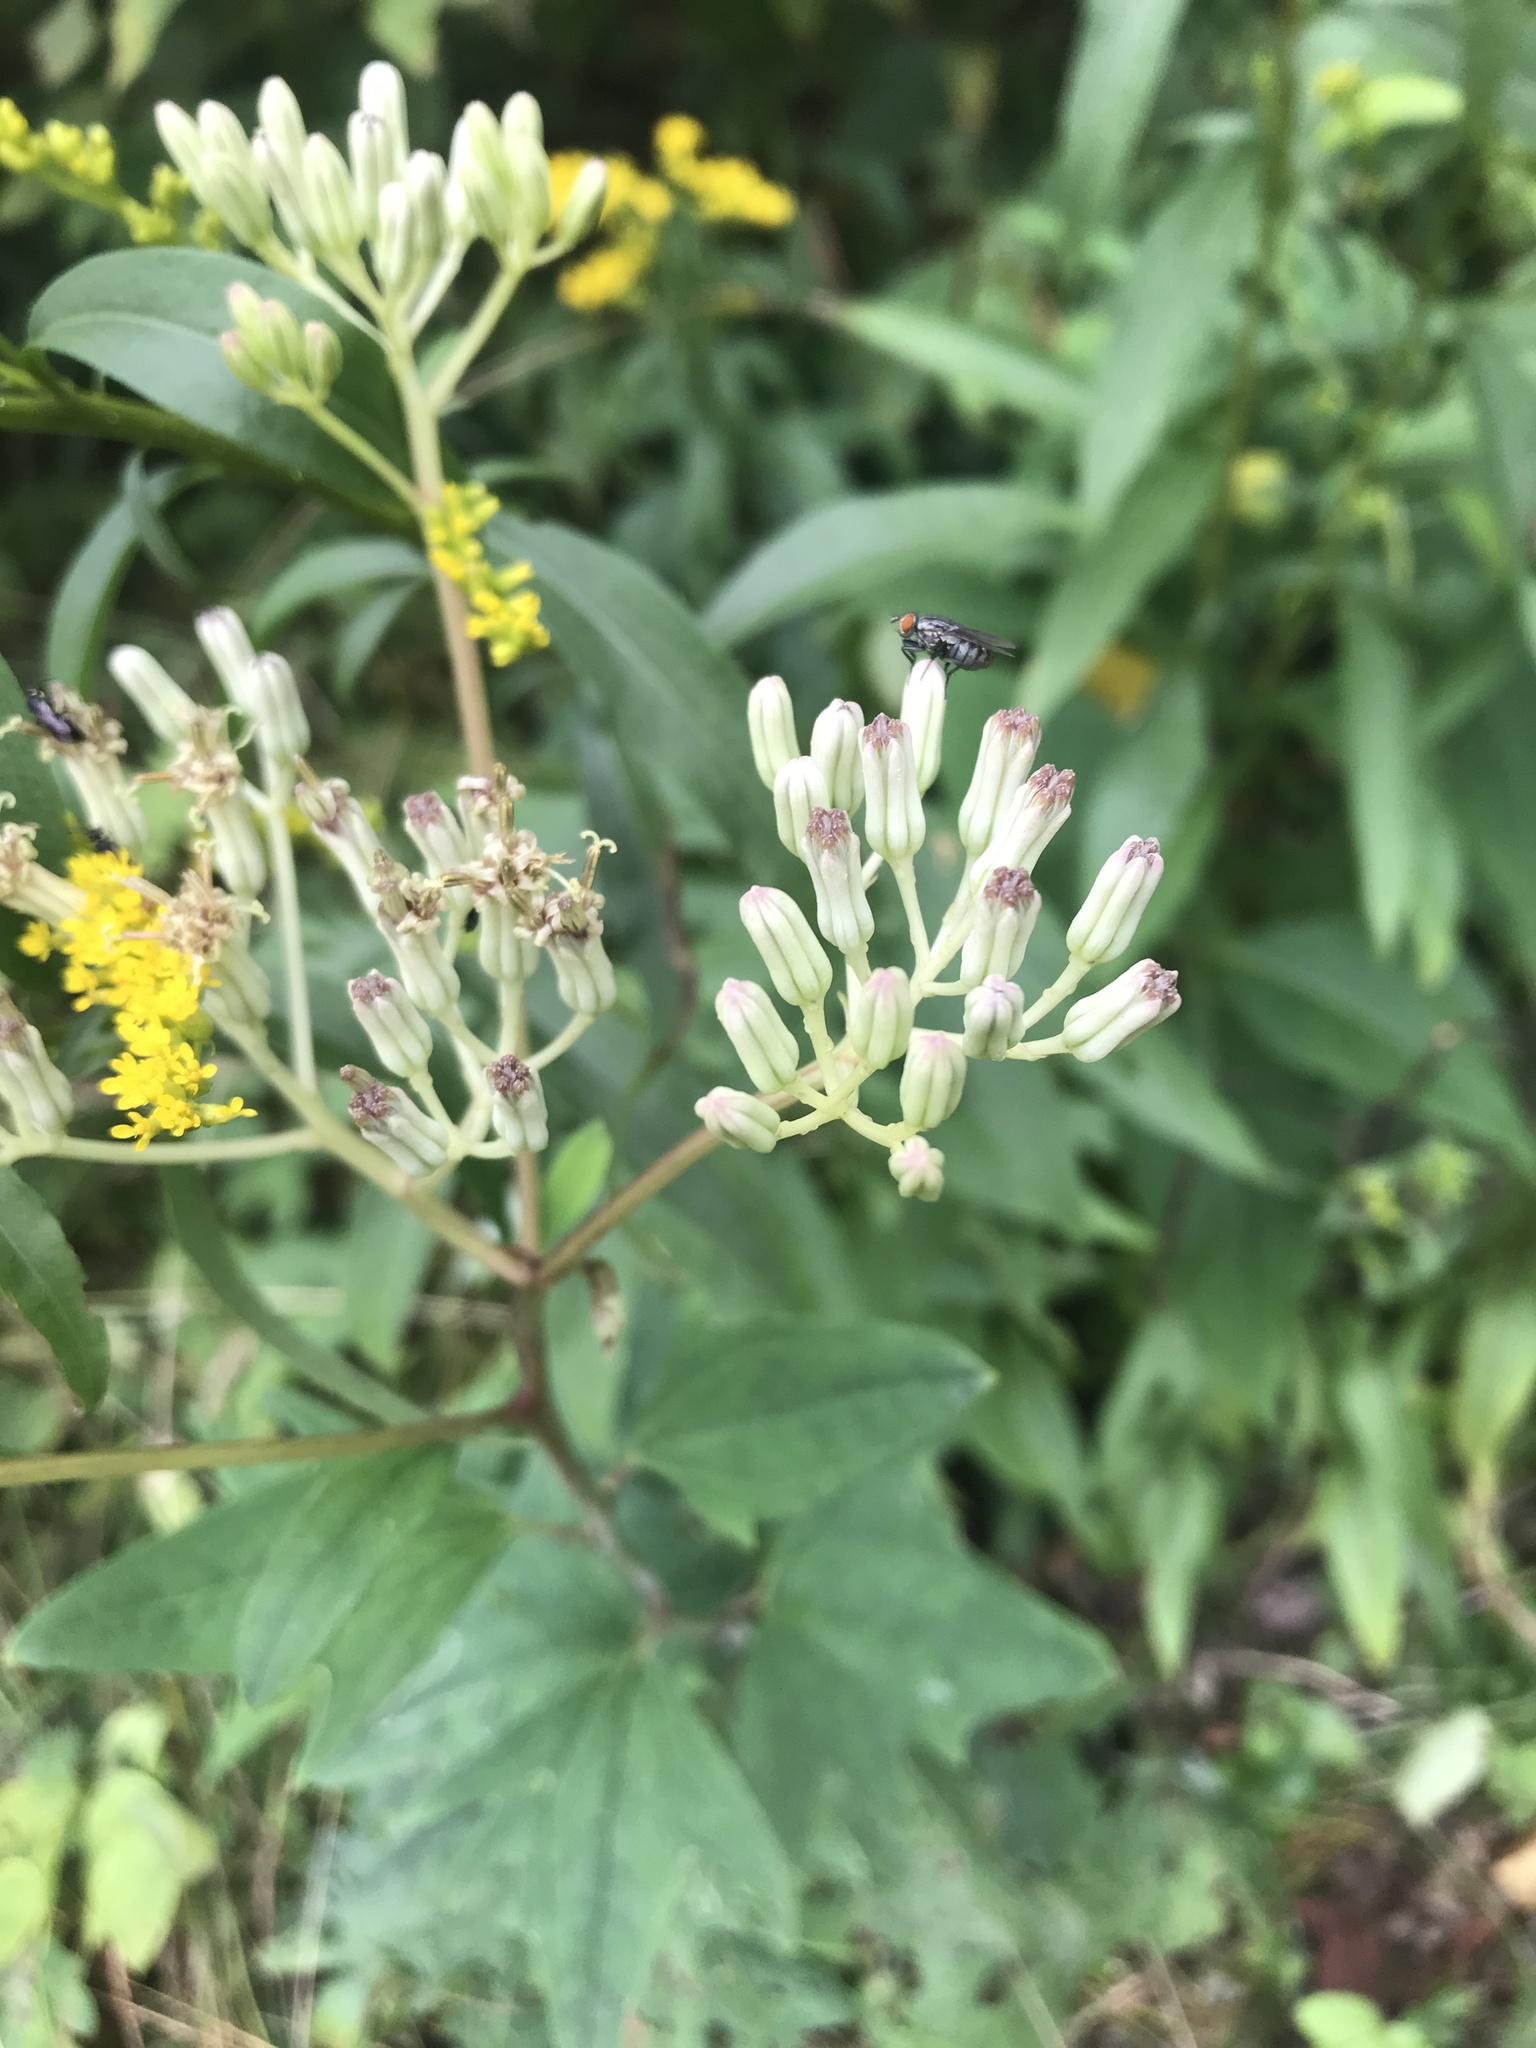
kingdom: Plantae
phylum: Tracheophyta
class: Magnoliopsida
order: Asterales
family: Asteraceae
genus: Arnoglossum
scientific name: Arnoglossum atriplicifolium
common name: Pale indian-plantain
